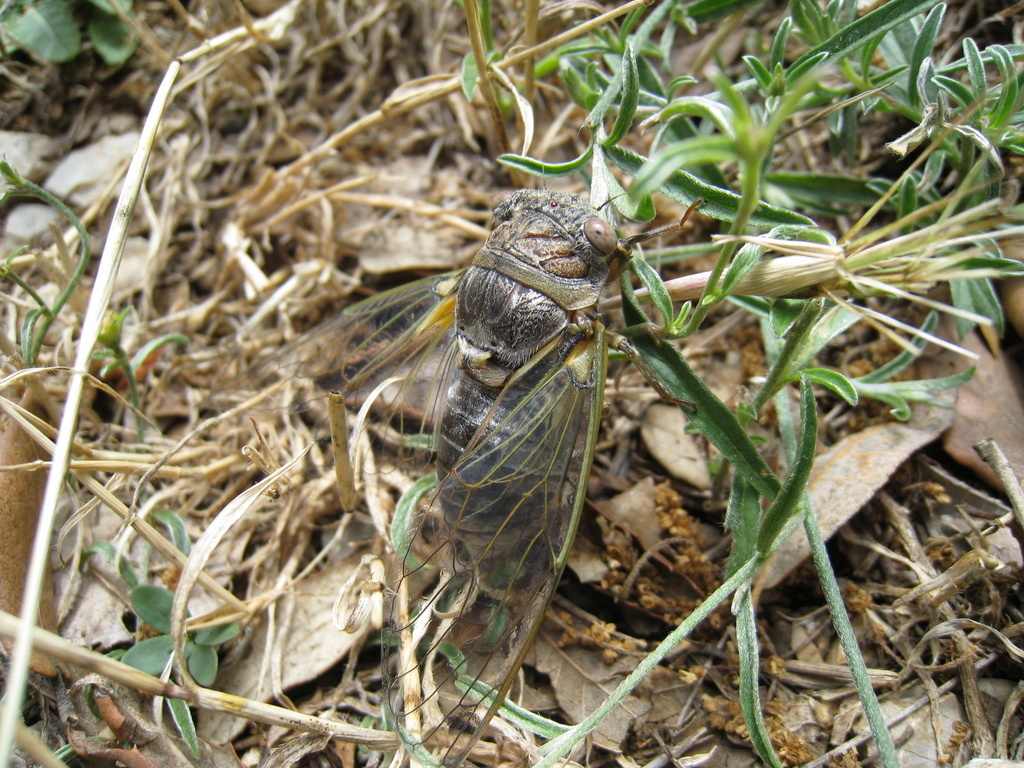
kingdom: Animalia
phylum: Arthropoda
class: Insecta
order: Hemiptera
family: Cicadidae
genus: Lyristes
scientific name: Lyristes plebejus
